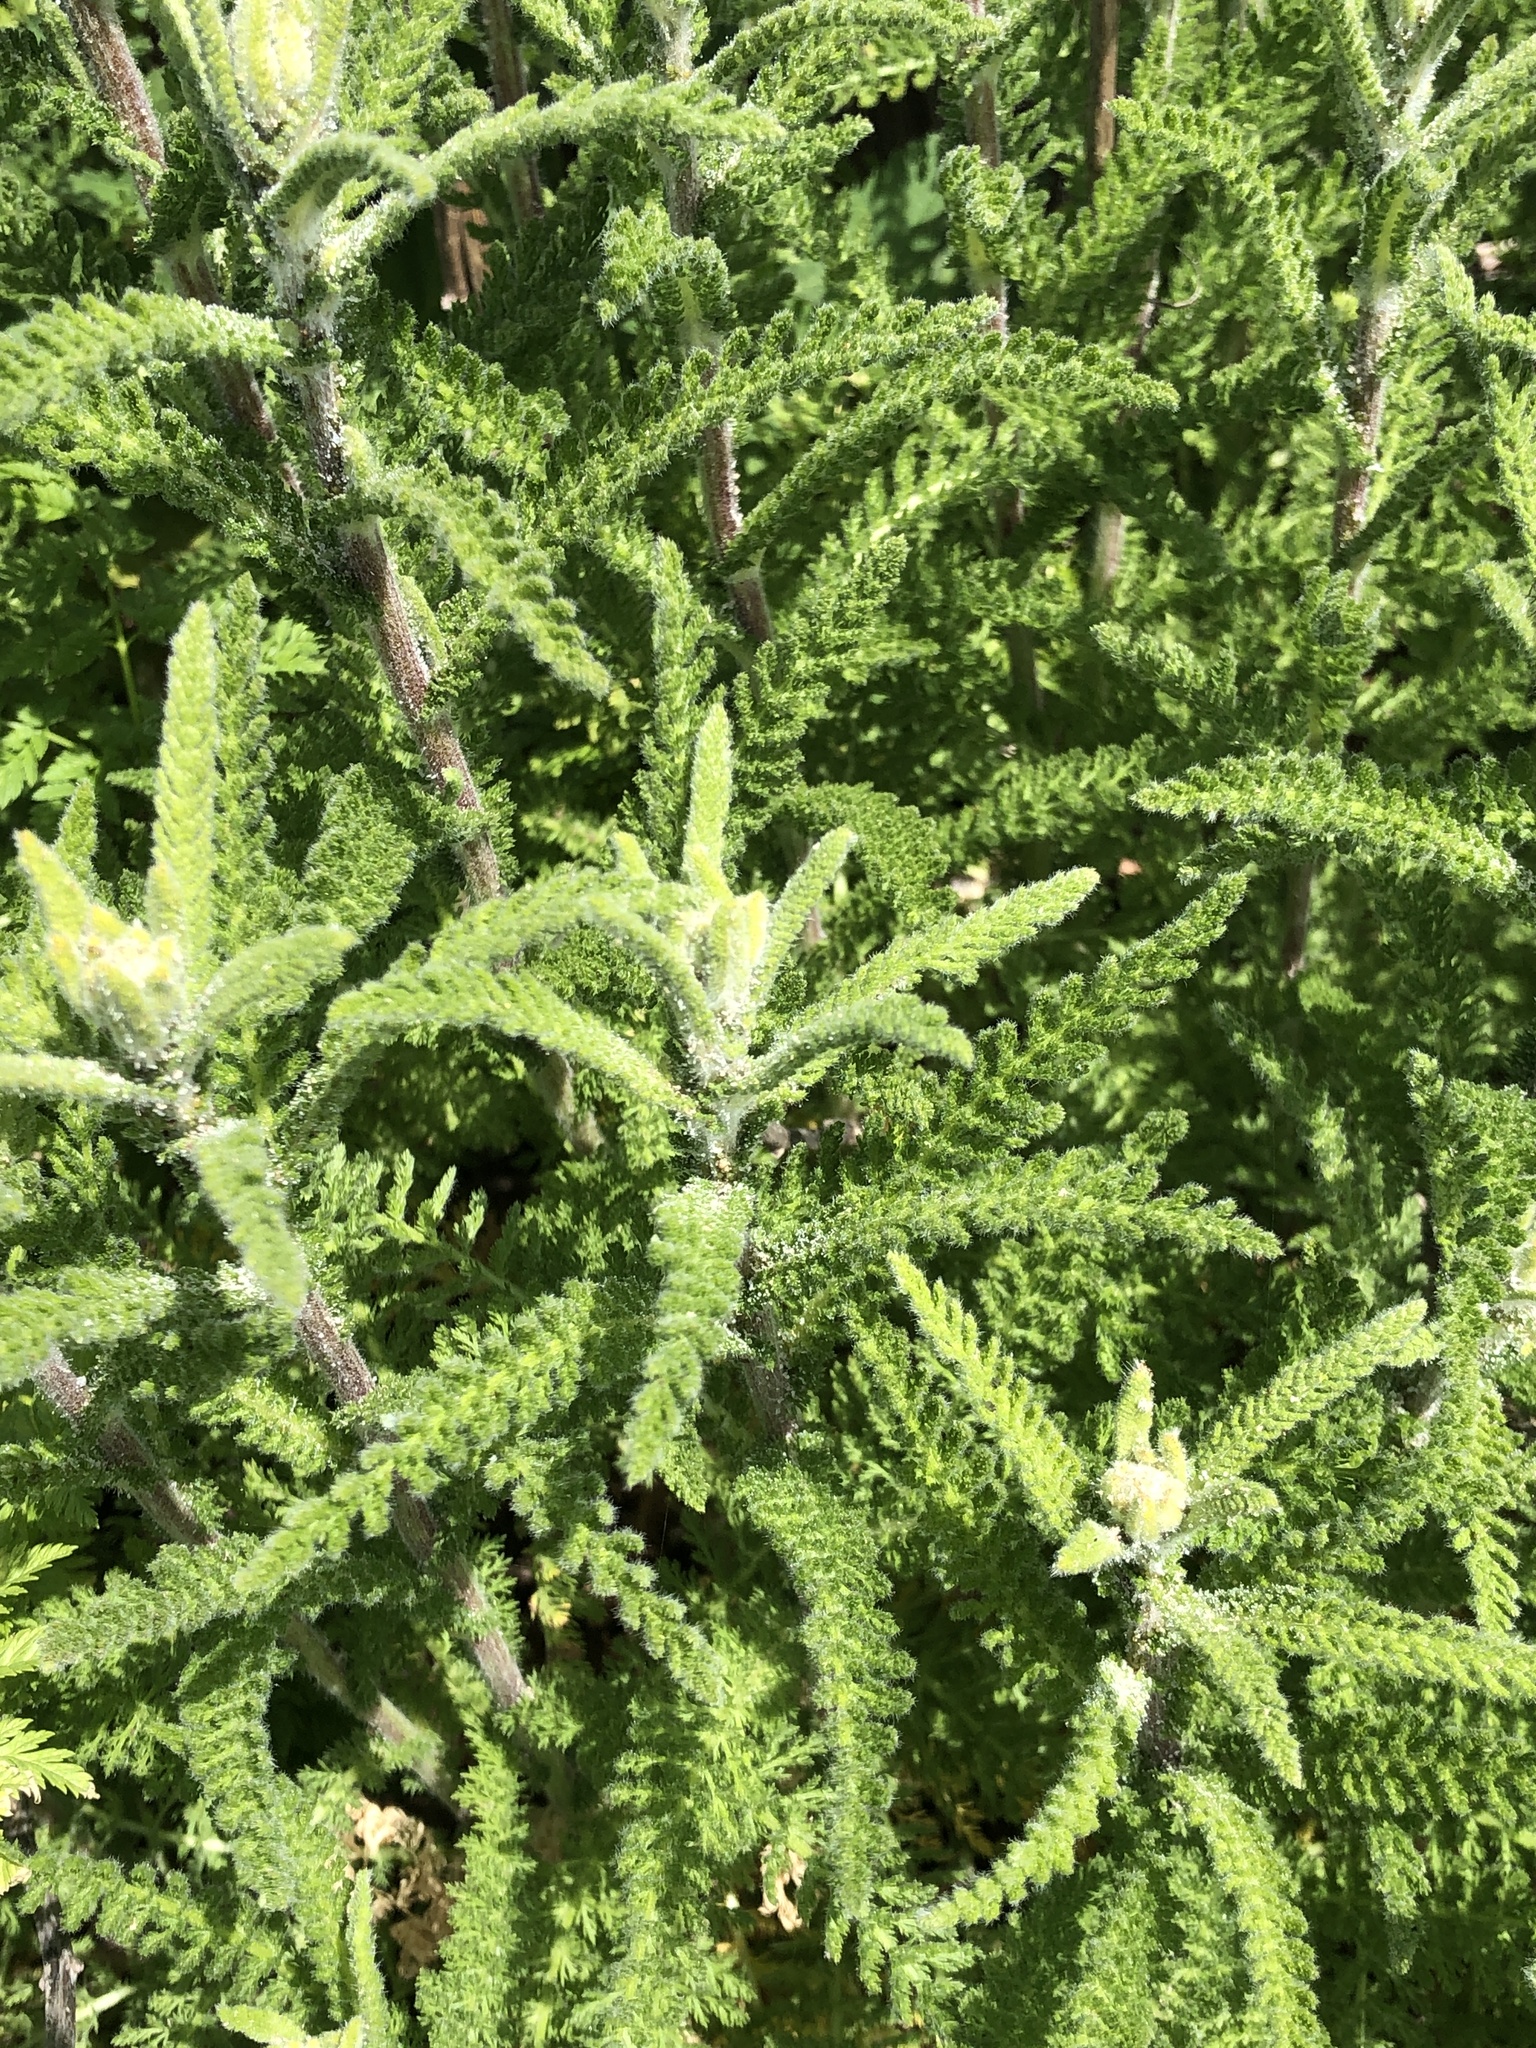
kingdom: Plantae
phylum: Tracheophyta
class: Magnoliopsida
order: Asterales
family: Asteraceae
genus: Achillea
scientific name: Achillea millefolium
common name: Yarrow
